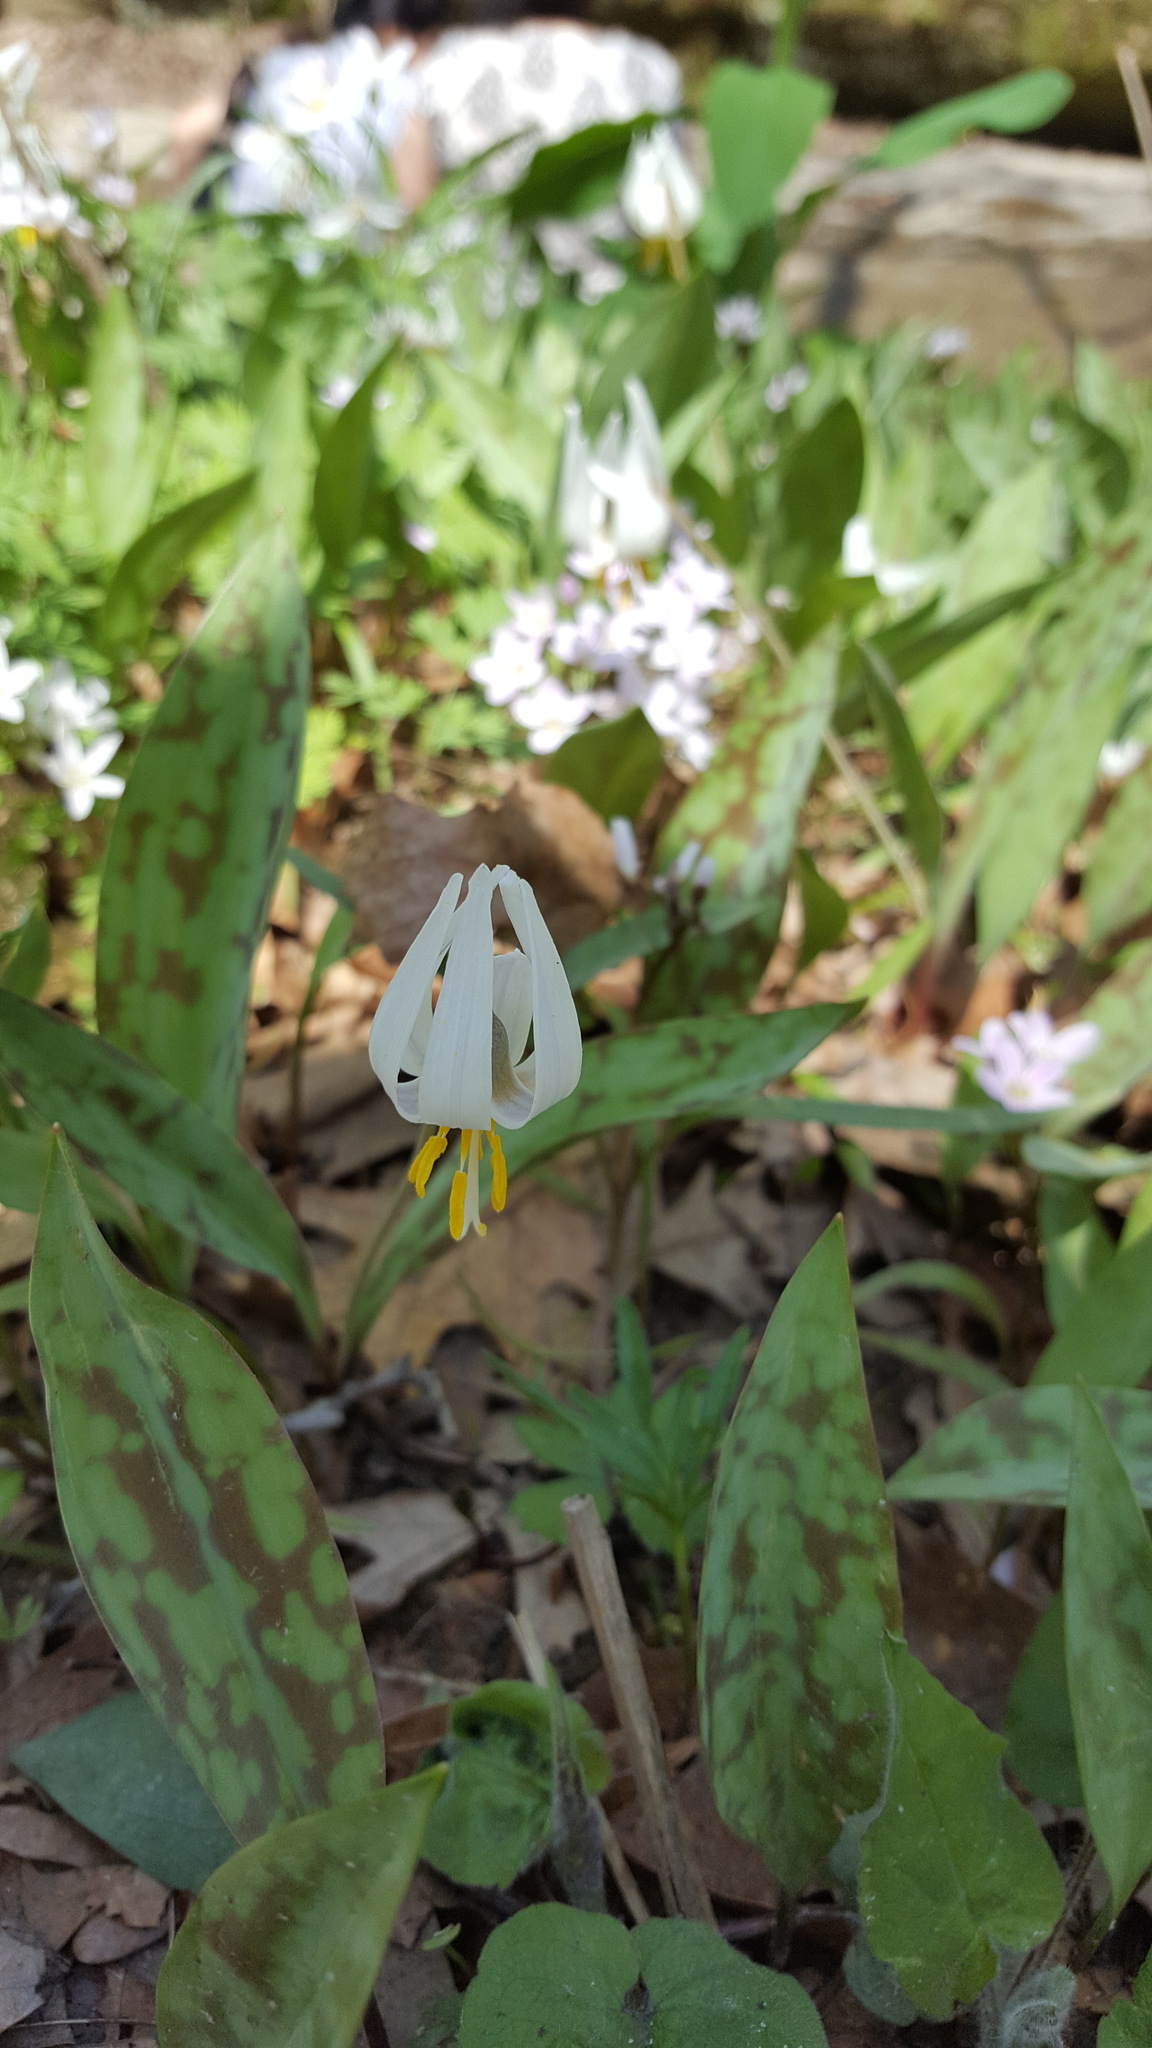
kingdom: Plantae
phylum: Tracheophyta
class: Liliopsida
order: Liliales
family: Liliaceae
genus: Erythronium
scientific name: Erythronium albidum
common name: White trout-lily
